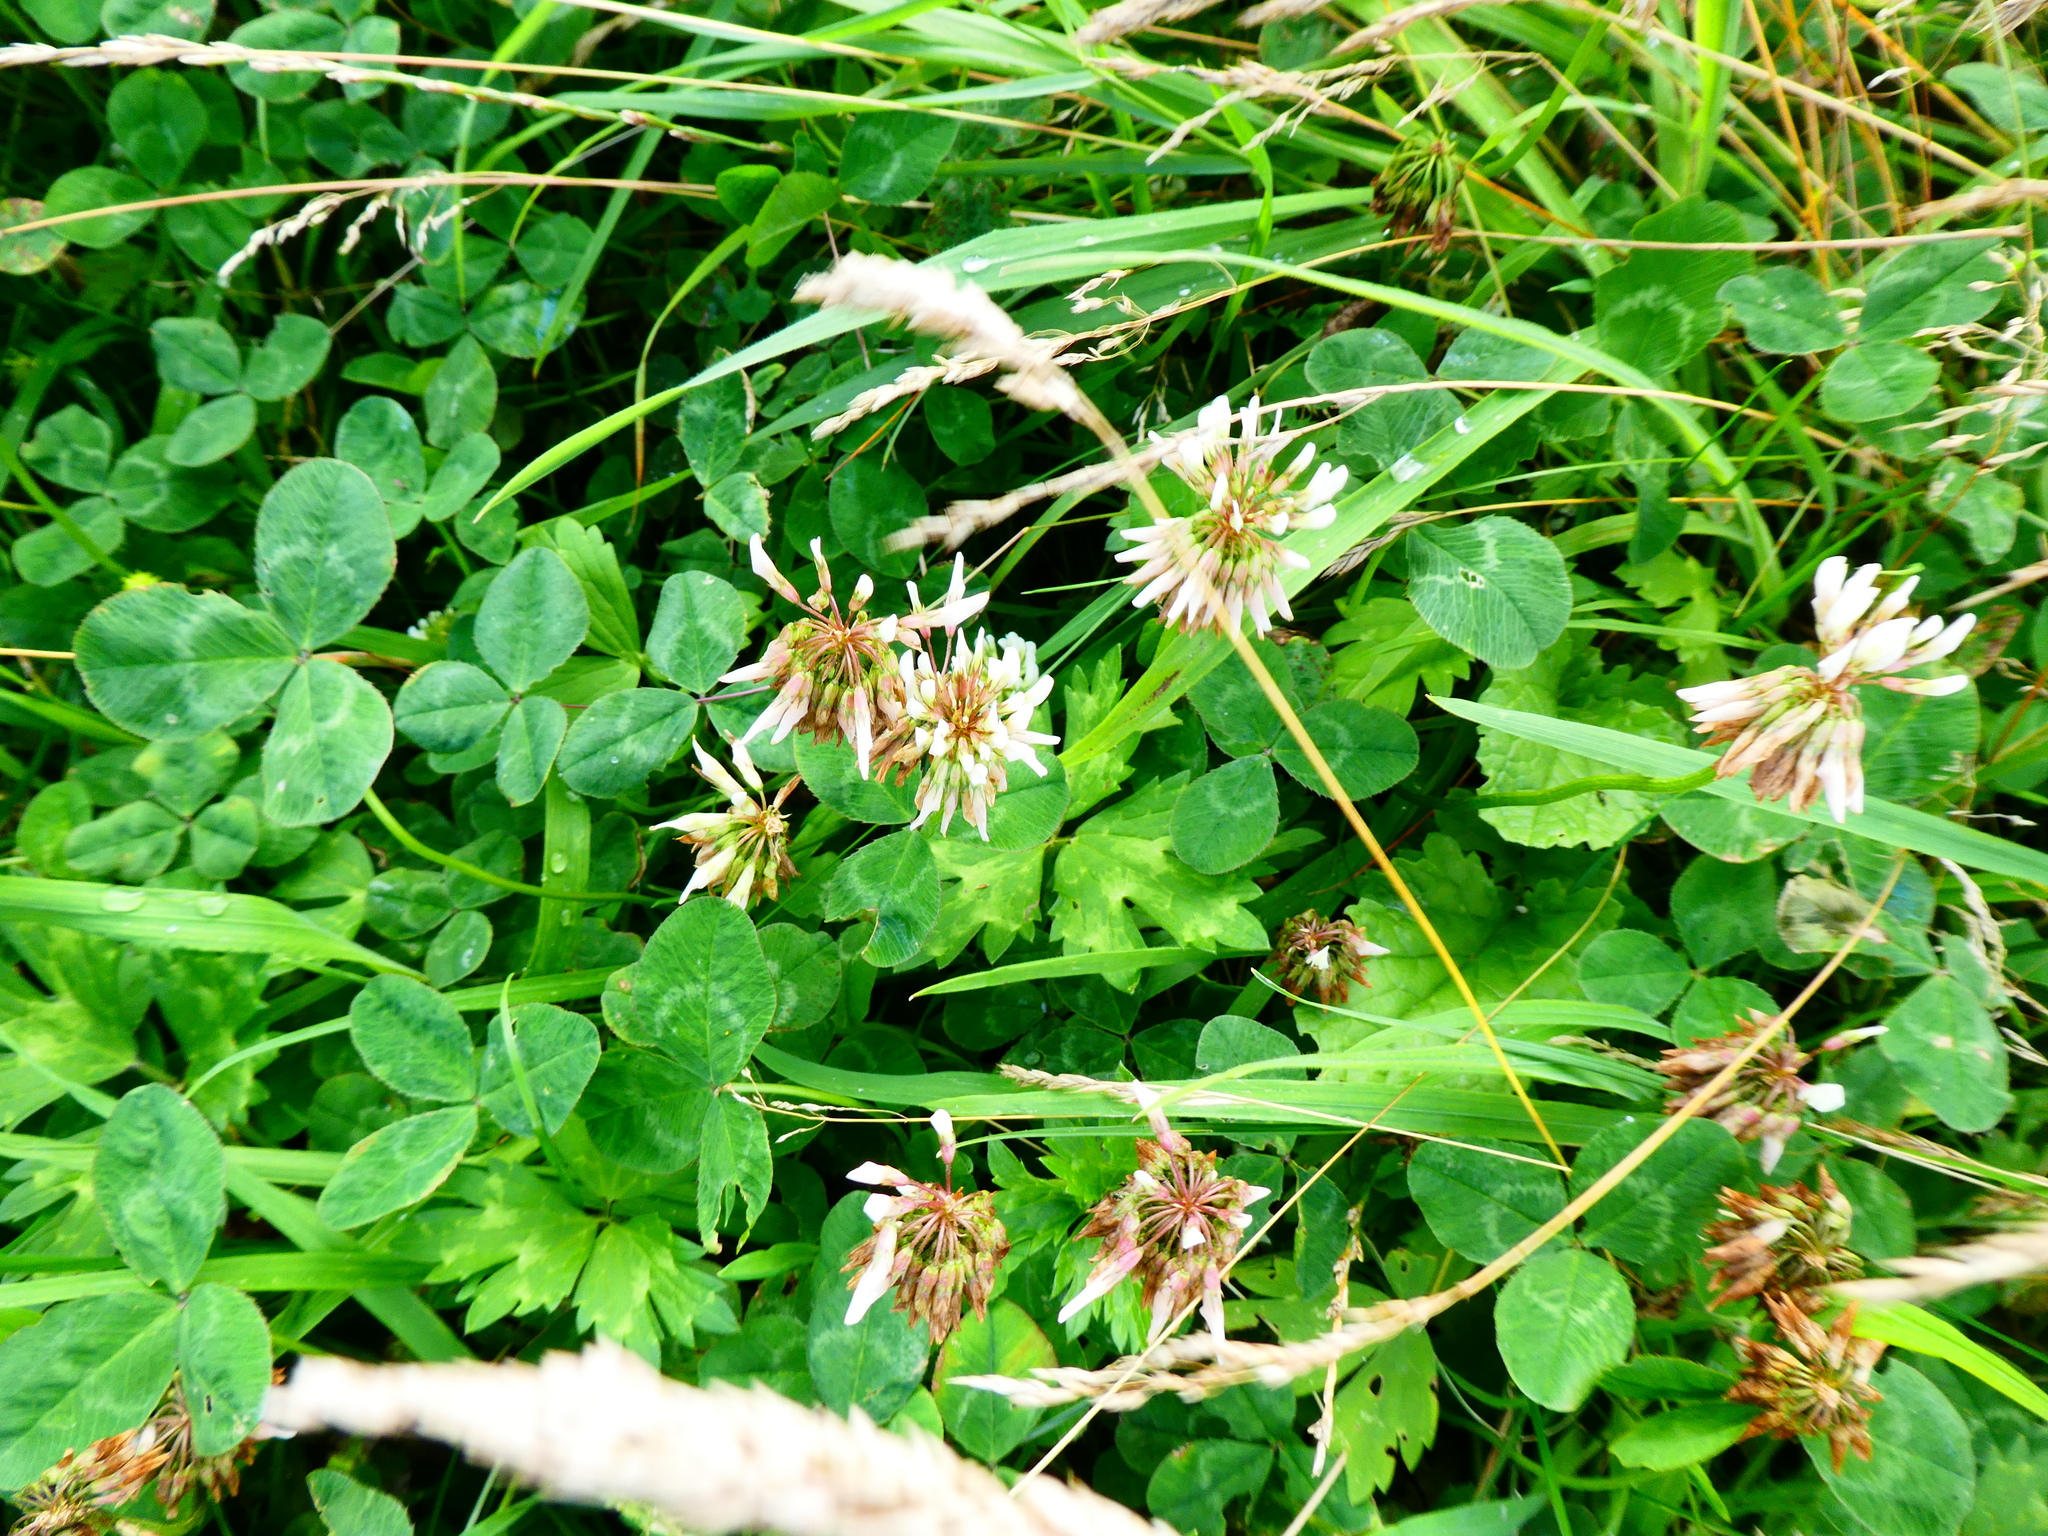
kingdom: Plantae
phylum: Tracheophyta
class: Magnoliopsida
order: Fabales
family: Fabaceae
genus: Trifolium
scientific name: Trifolium repens
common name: White clover
